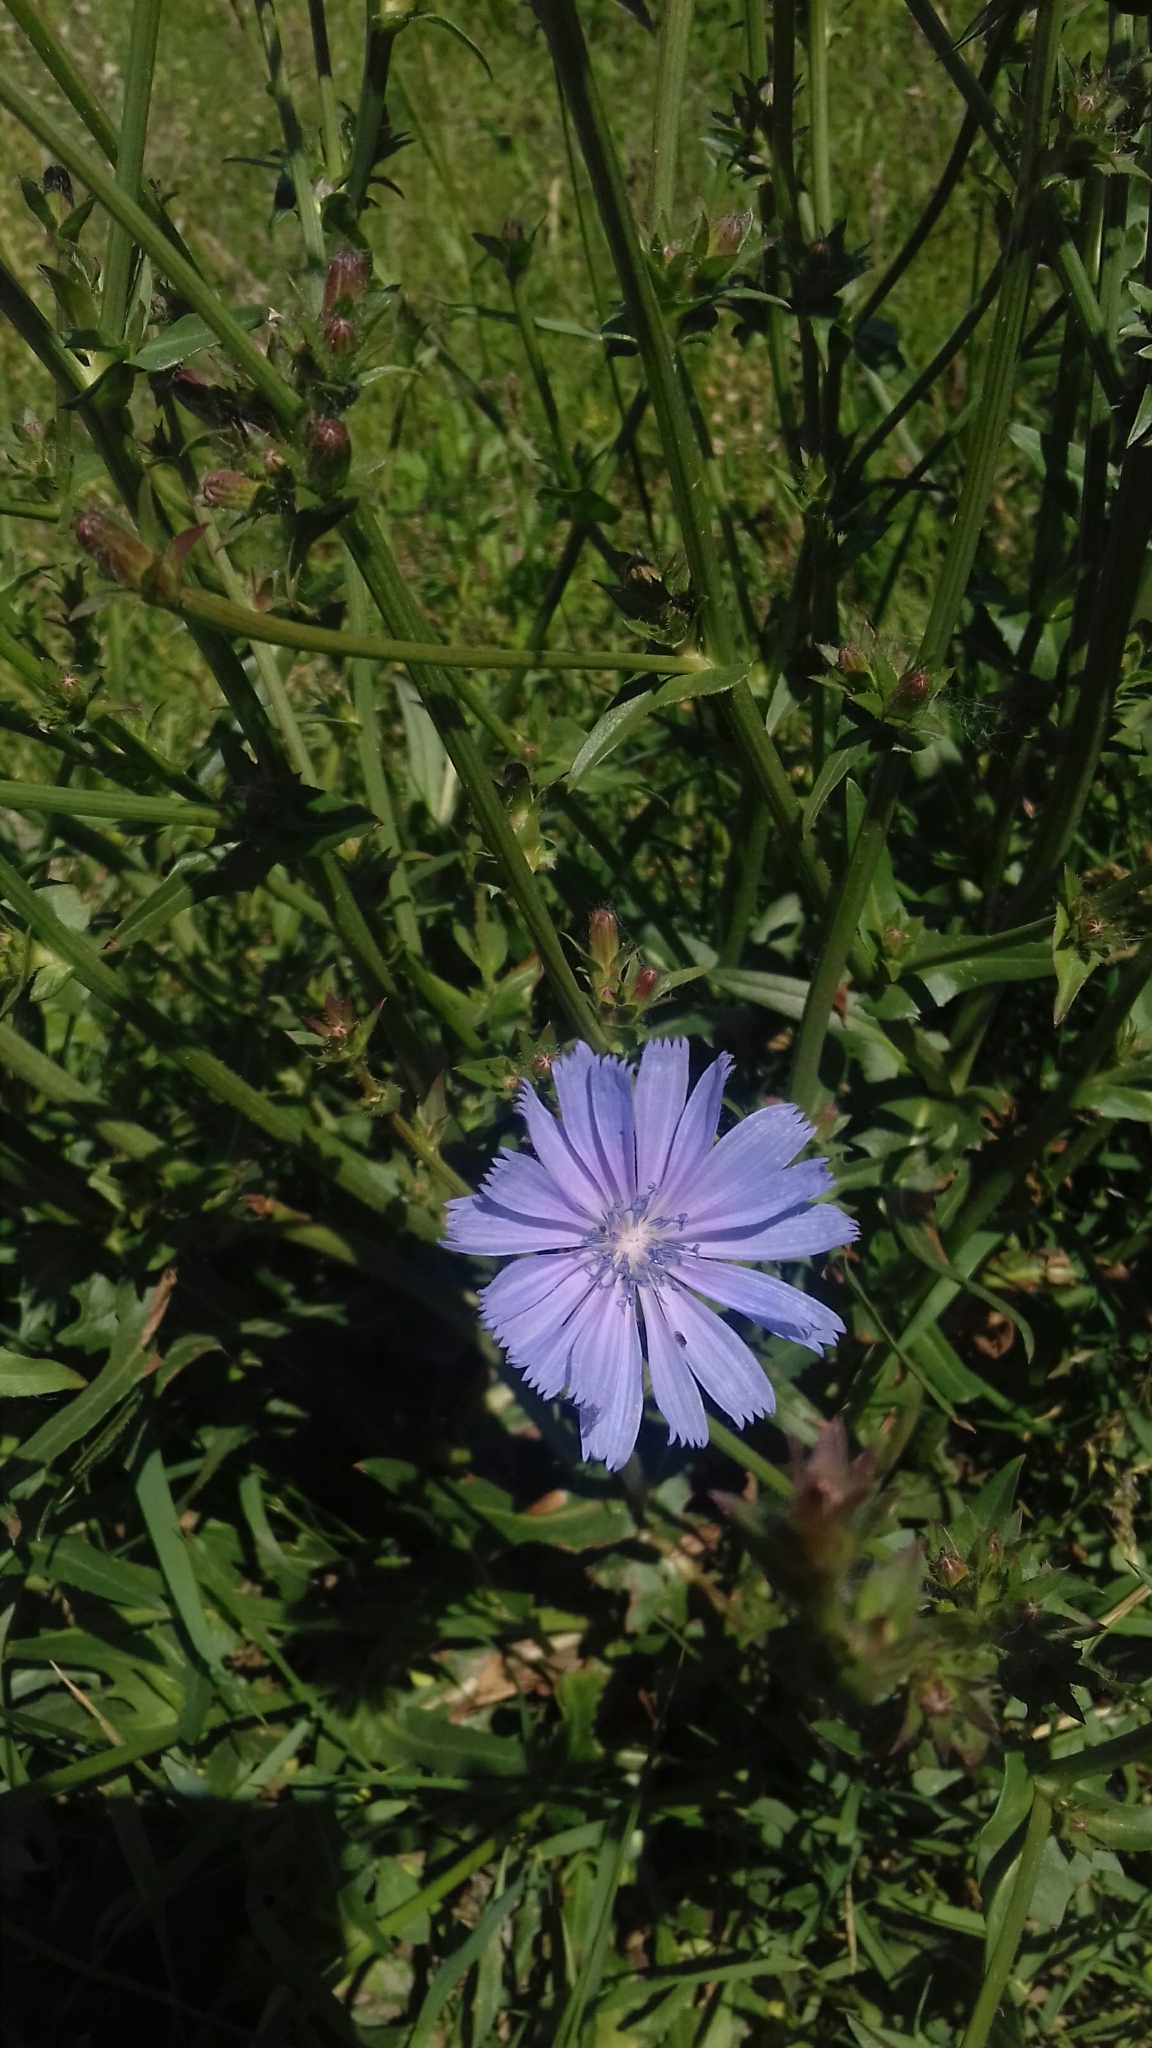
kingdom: Plantae
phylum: Tracheophyta
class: Magnoliopsida
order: Asterales
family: Asteraceae
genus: Cichorium
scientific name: Cichorium intybus
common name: Chicory
